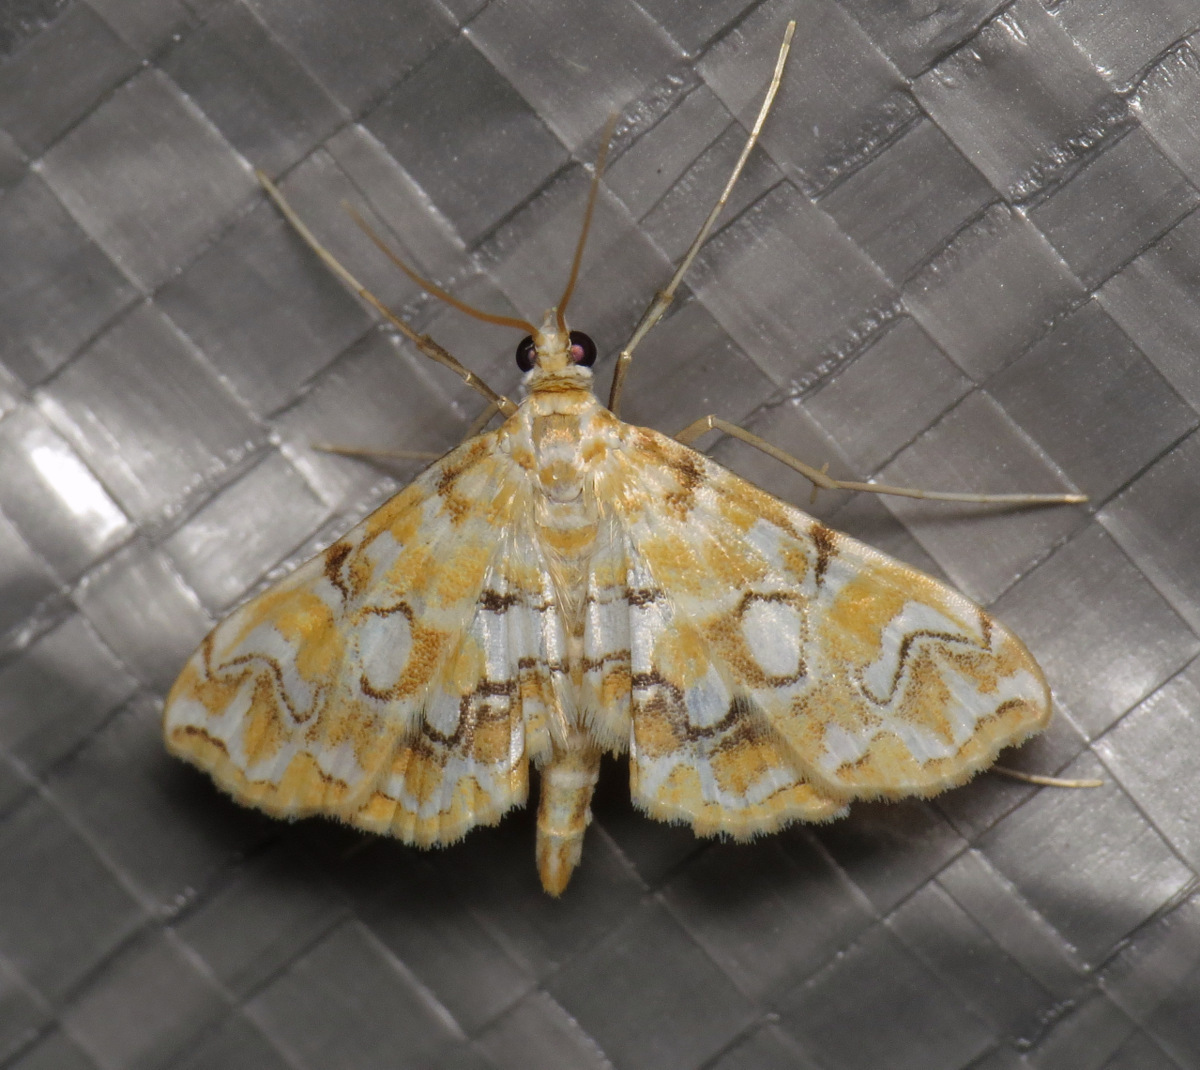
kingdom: Animalia
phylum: Arthropoda
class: Insecta
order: Lepidoptera
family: Crambidae
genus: Elophila
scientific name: Elophila icciusalis
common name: Pondside pyralid moth
